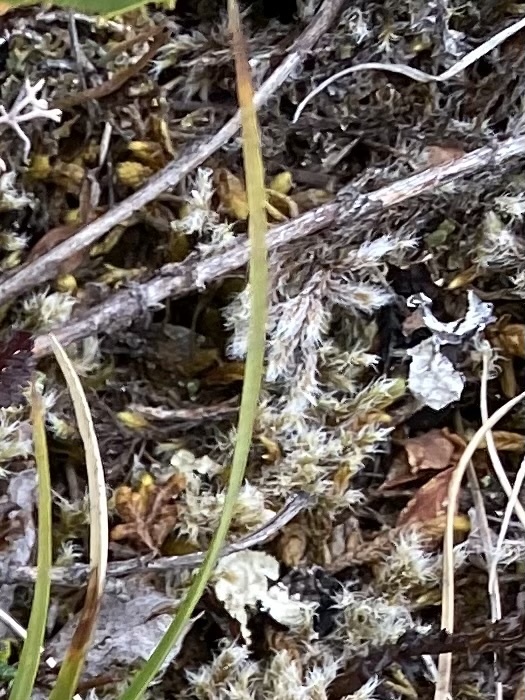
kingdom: Plantae
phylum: Bryophyta
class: Bryopsida
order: Grimmiales
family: Grimmiaceae
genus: Racomitrium
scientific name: Racomitrium lanuginosum
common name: Hoary rock moss
